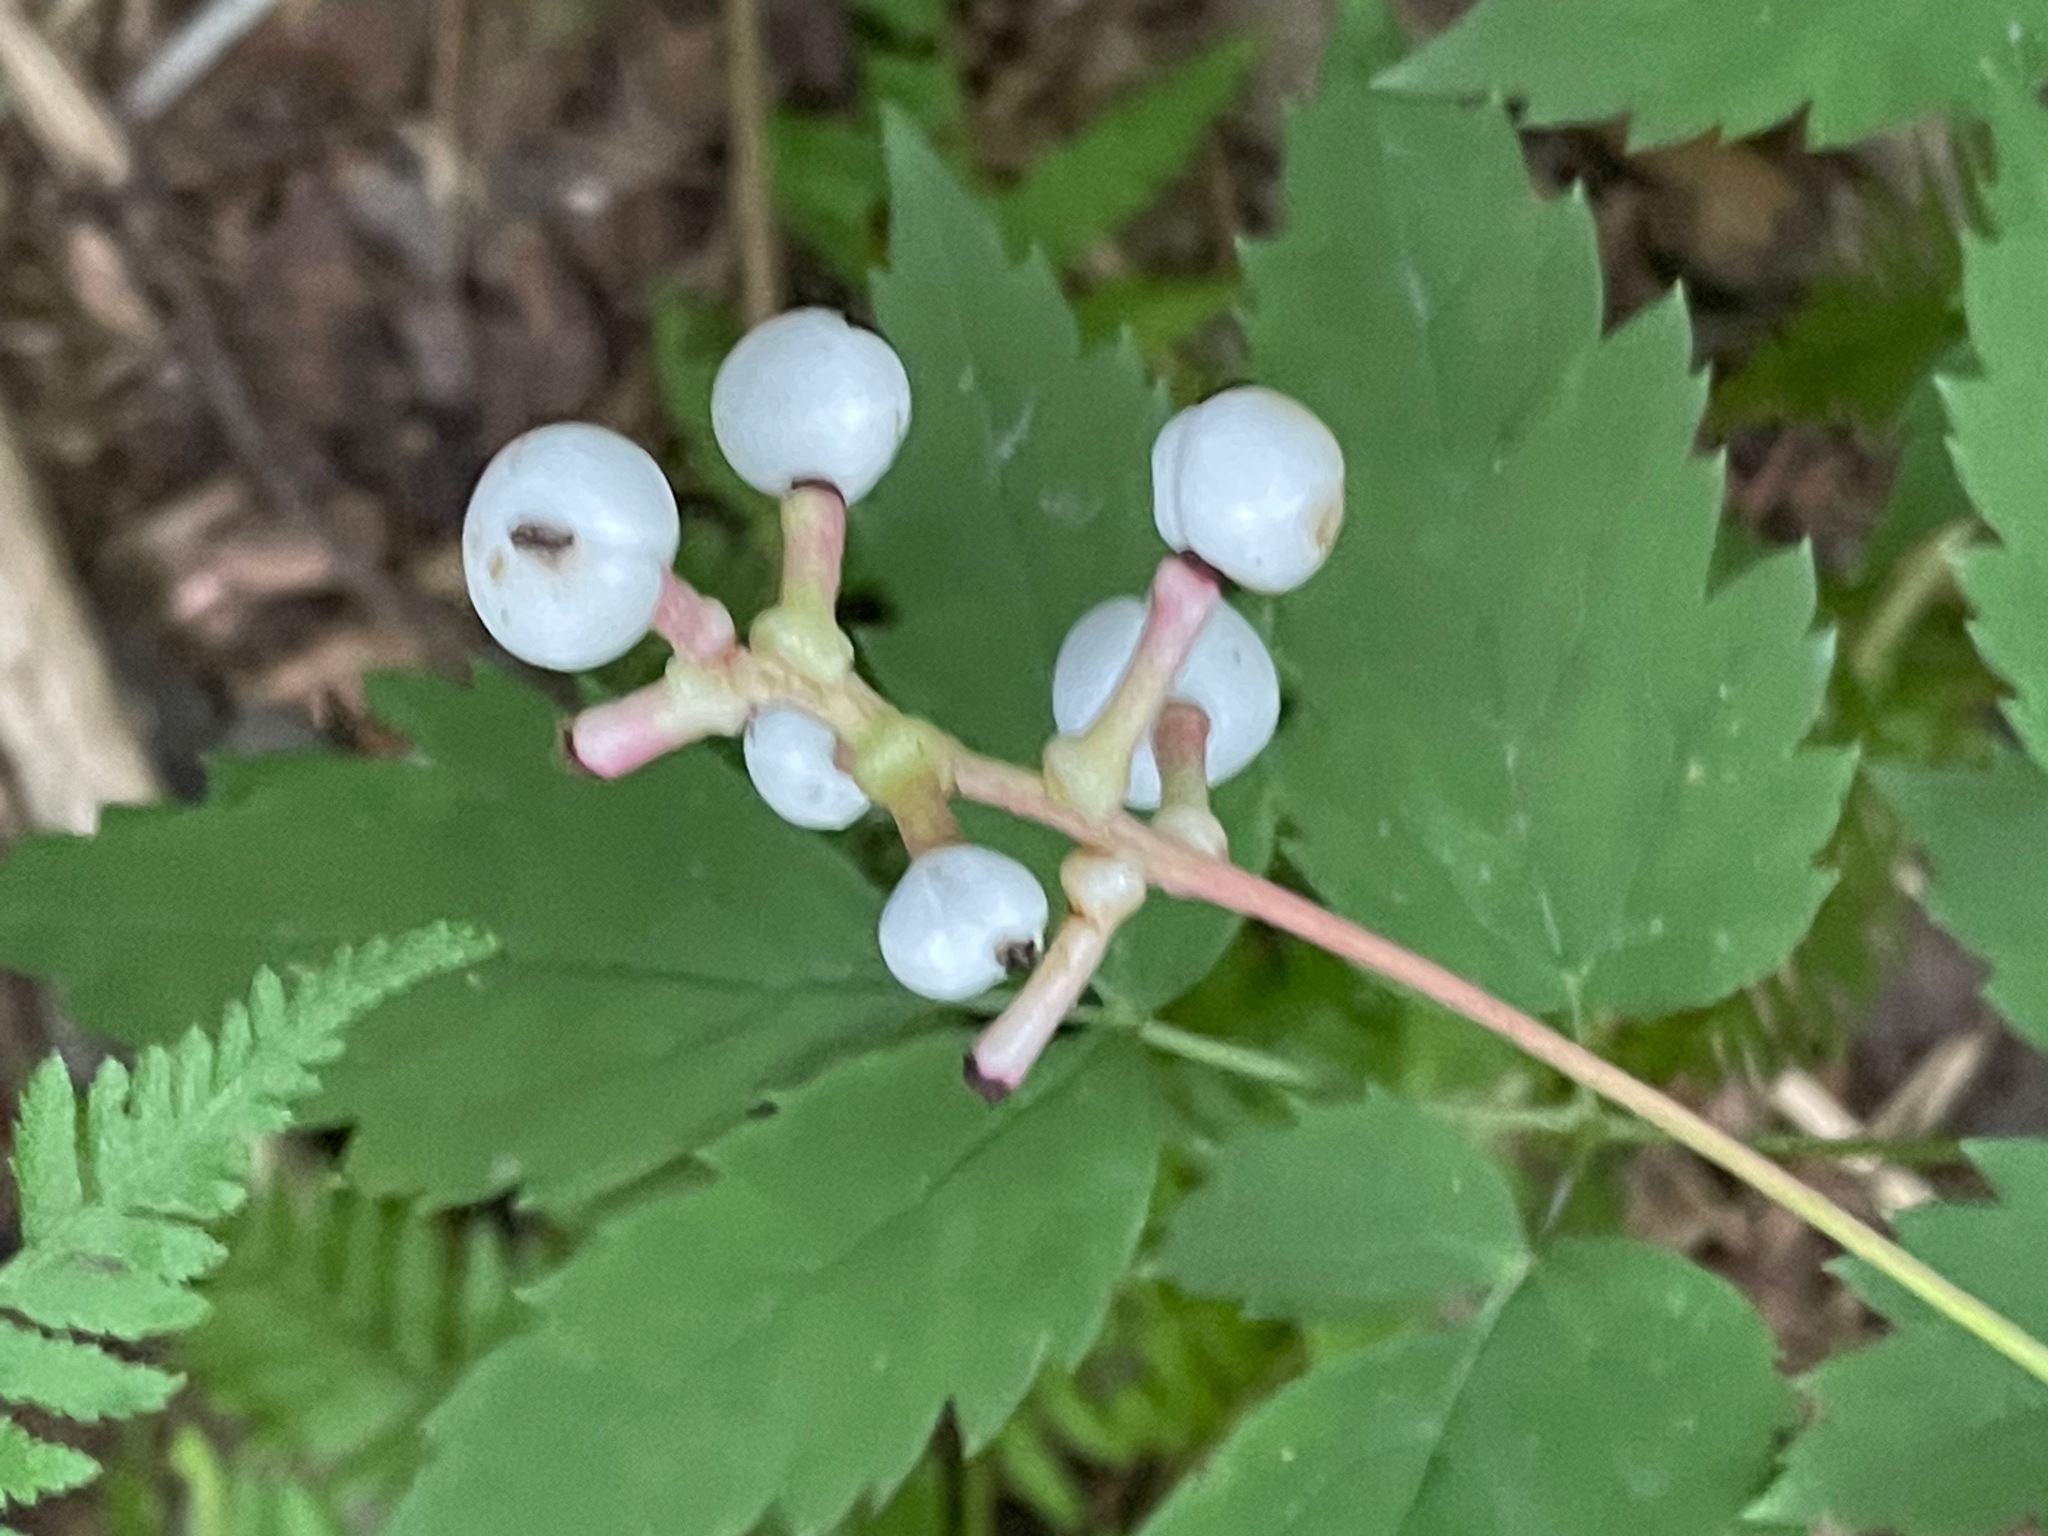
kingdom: Plantae
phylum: Tracheophyta
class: Magnoliopsida
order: Ranunculales
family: Ranunculaceae
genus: Actaea
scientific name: Actaea pachypoda
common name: Doll's-eyes
